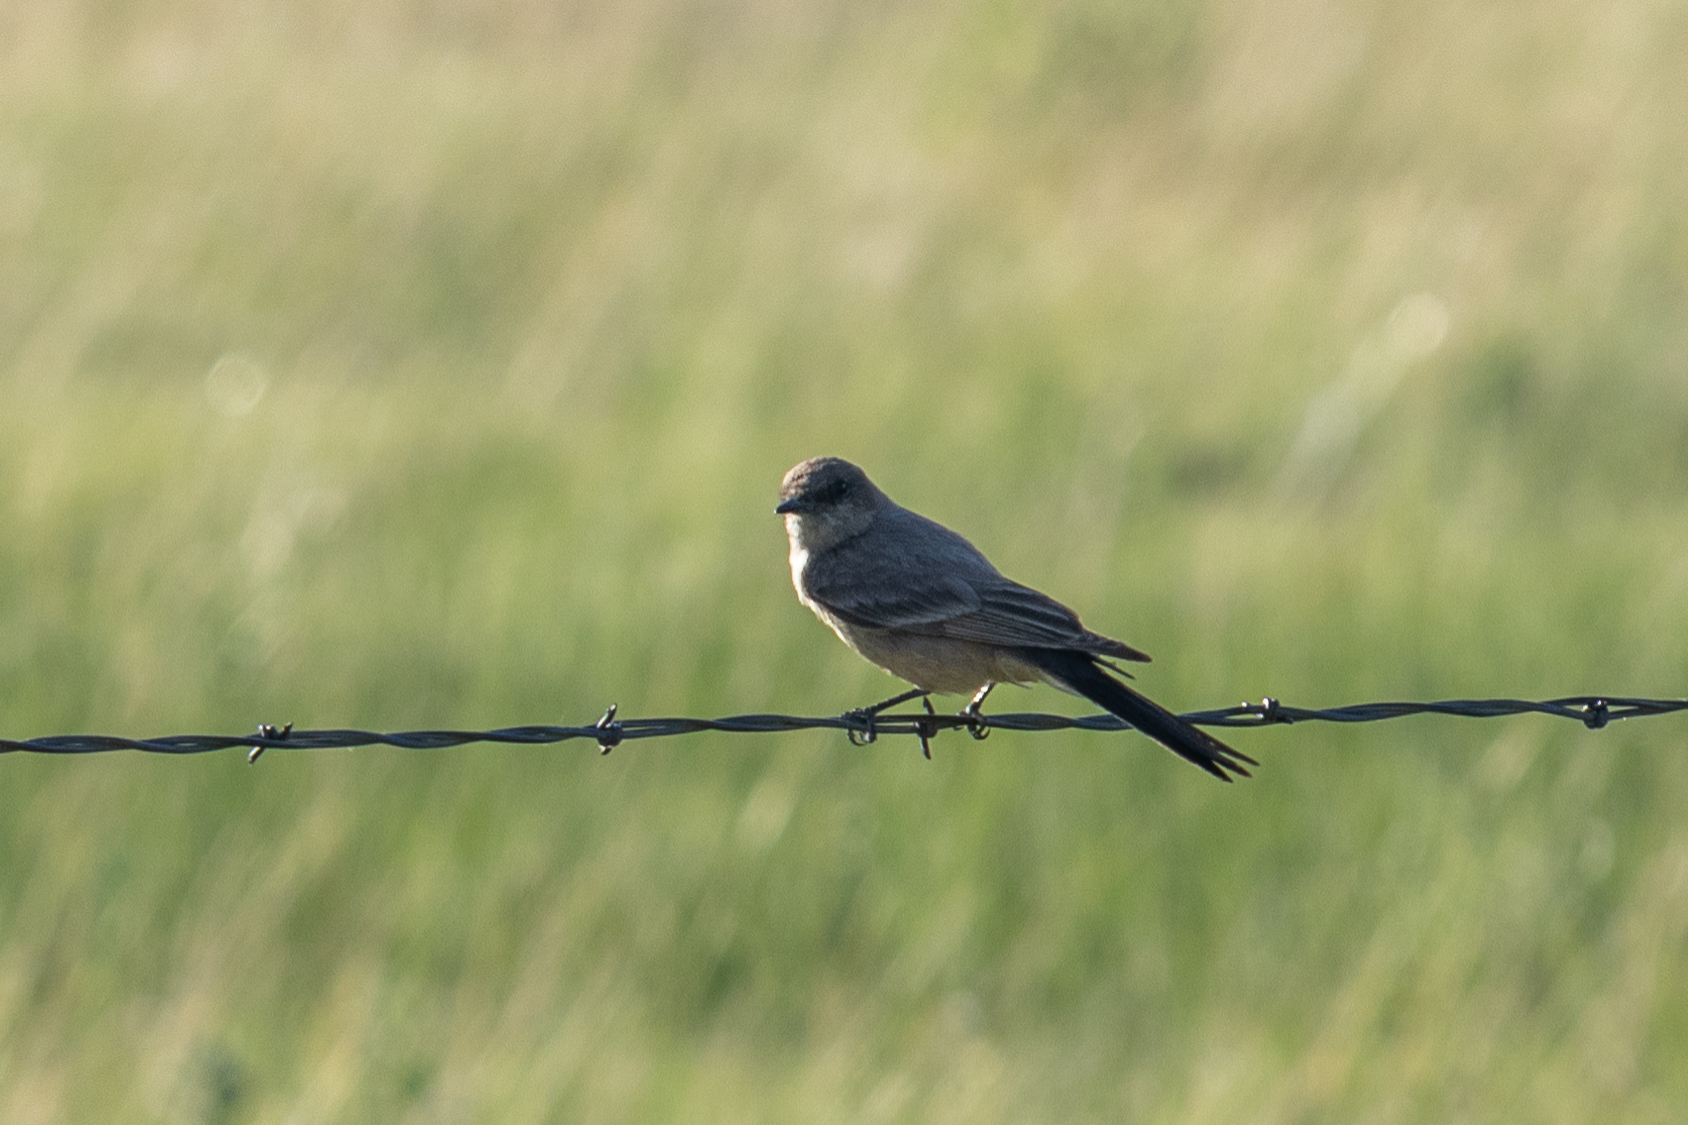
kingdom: Animalia
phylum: Chordata
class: Aves
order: Passeriformes
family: Tyrannidae
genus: Sayornis
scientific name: Sayornis saya
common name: Say's phoebe
